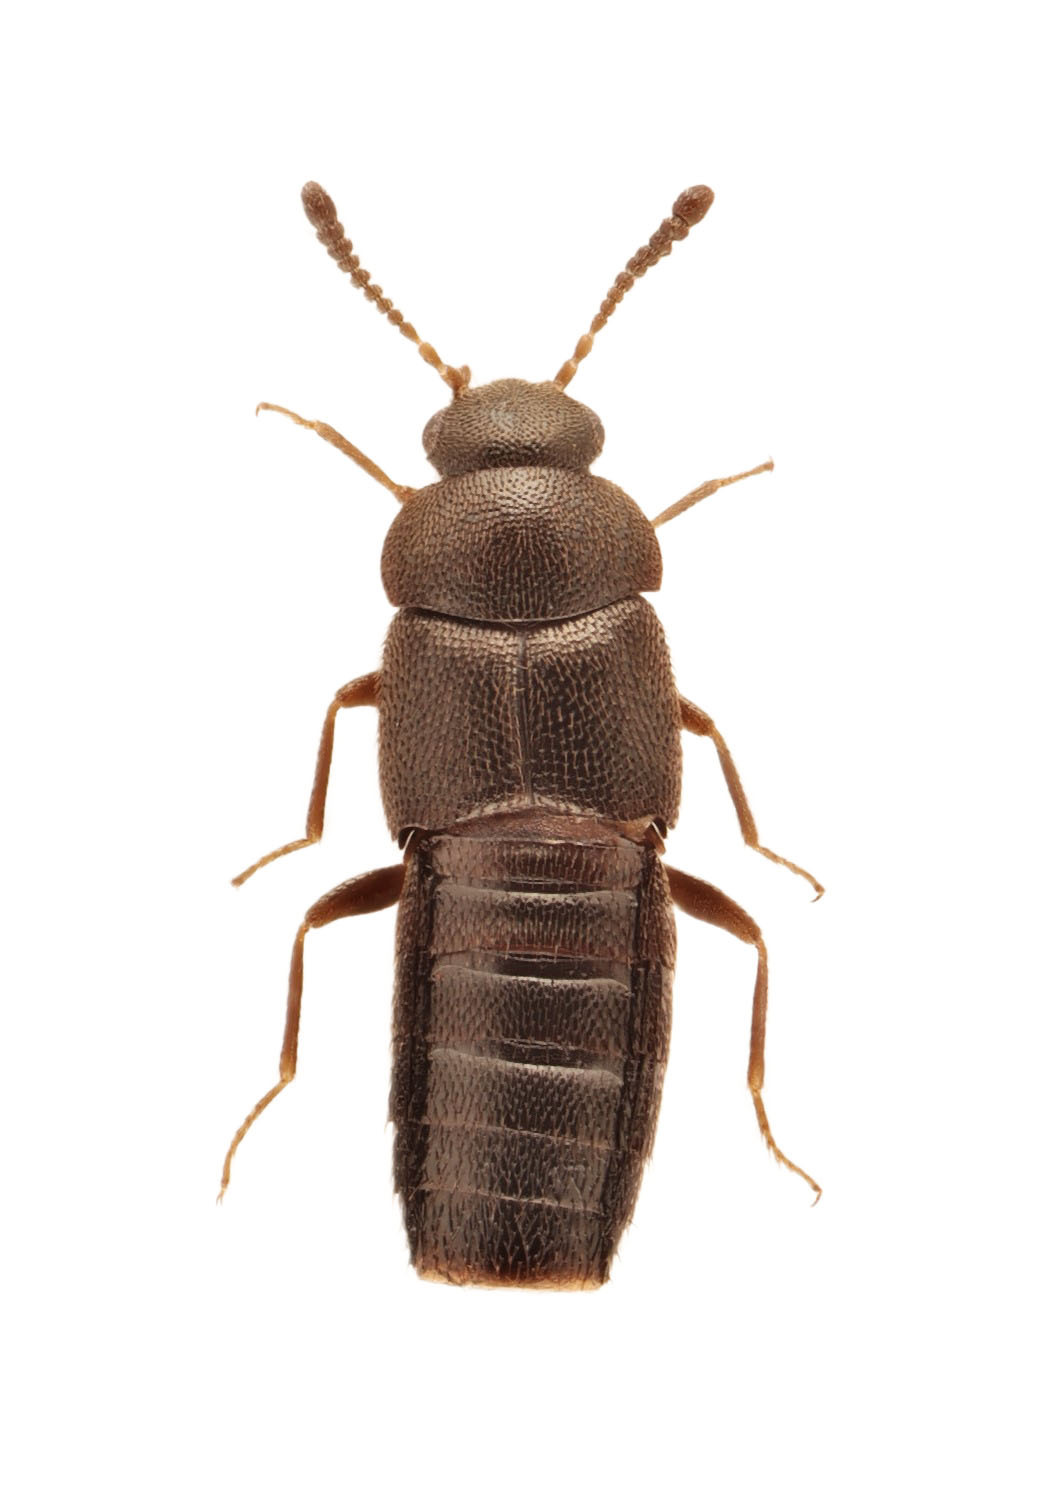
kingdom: Animalia
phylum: Arthropoda
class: Insecta
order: Coleoptera
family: Staphylinidae
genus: Cyphea
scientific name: Cyphea wallisi
